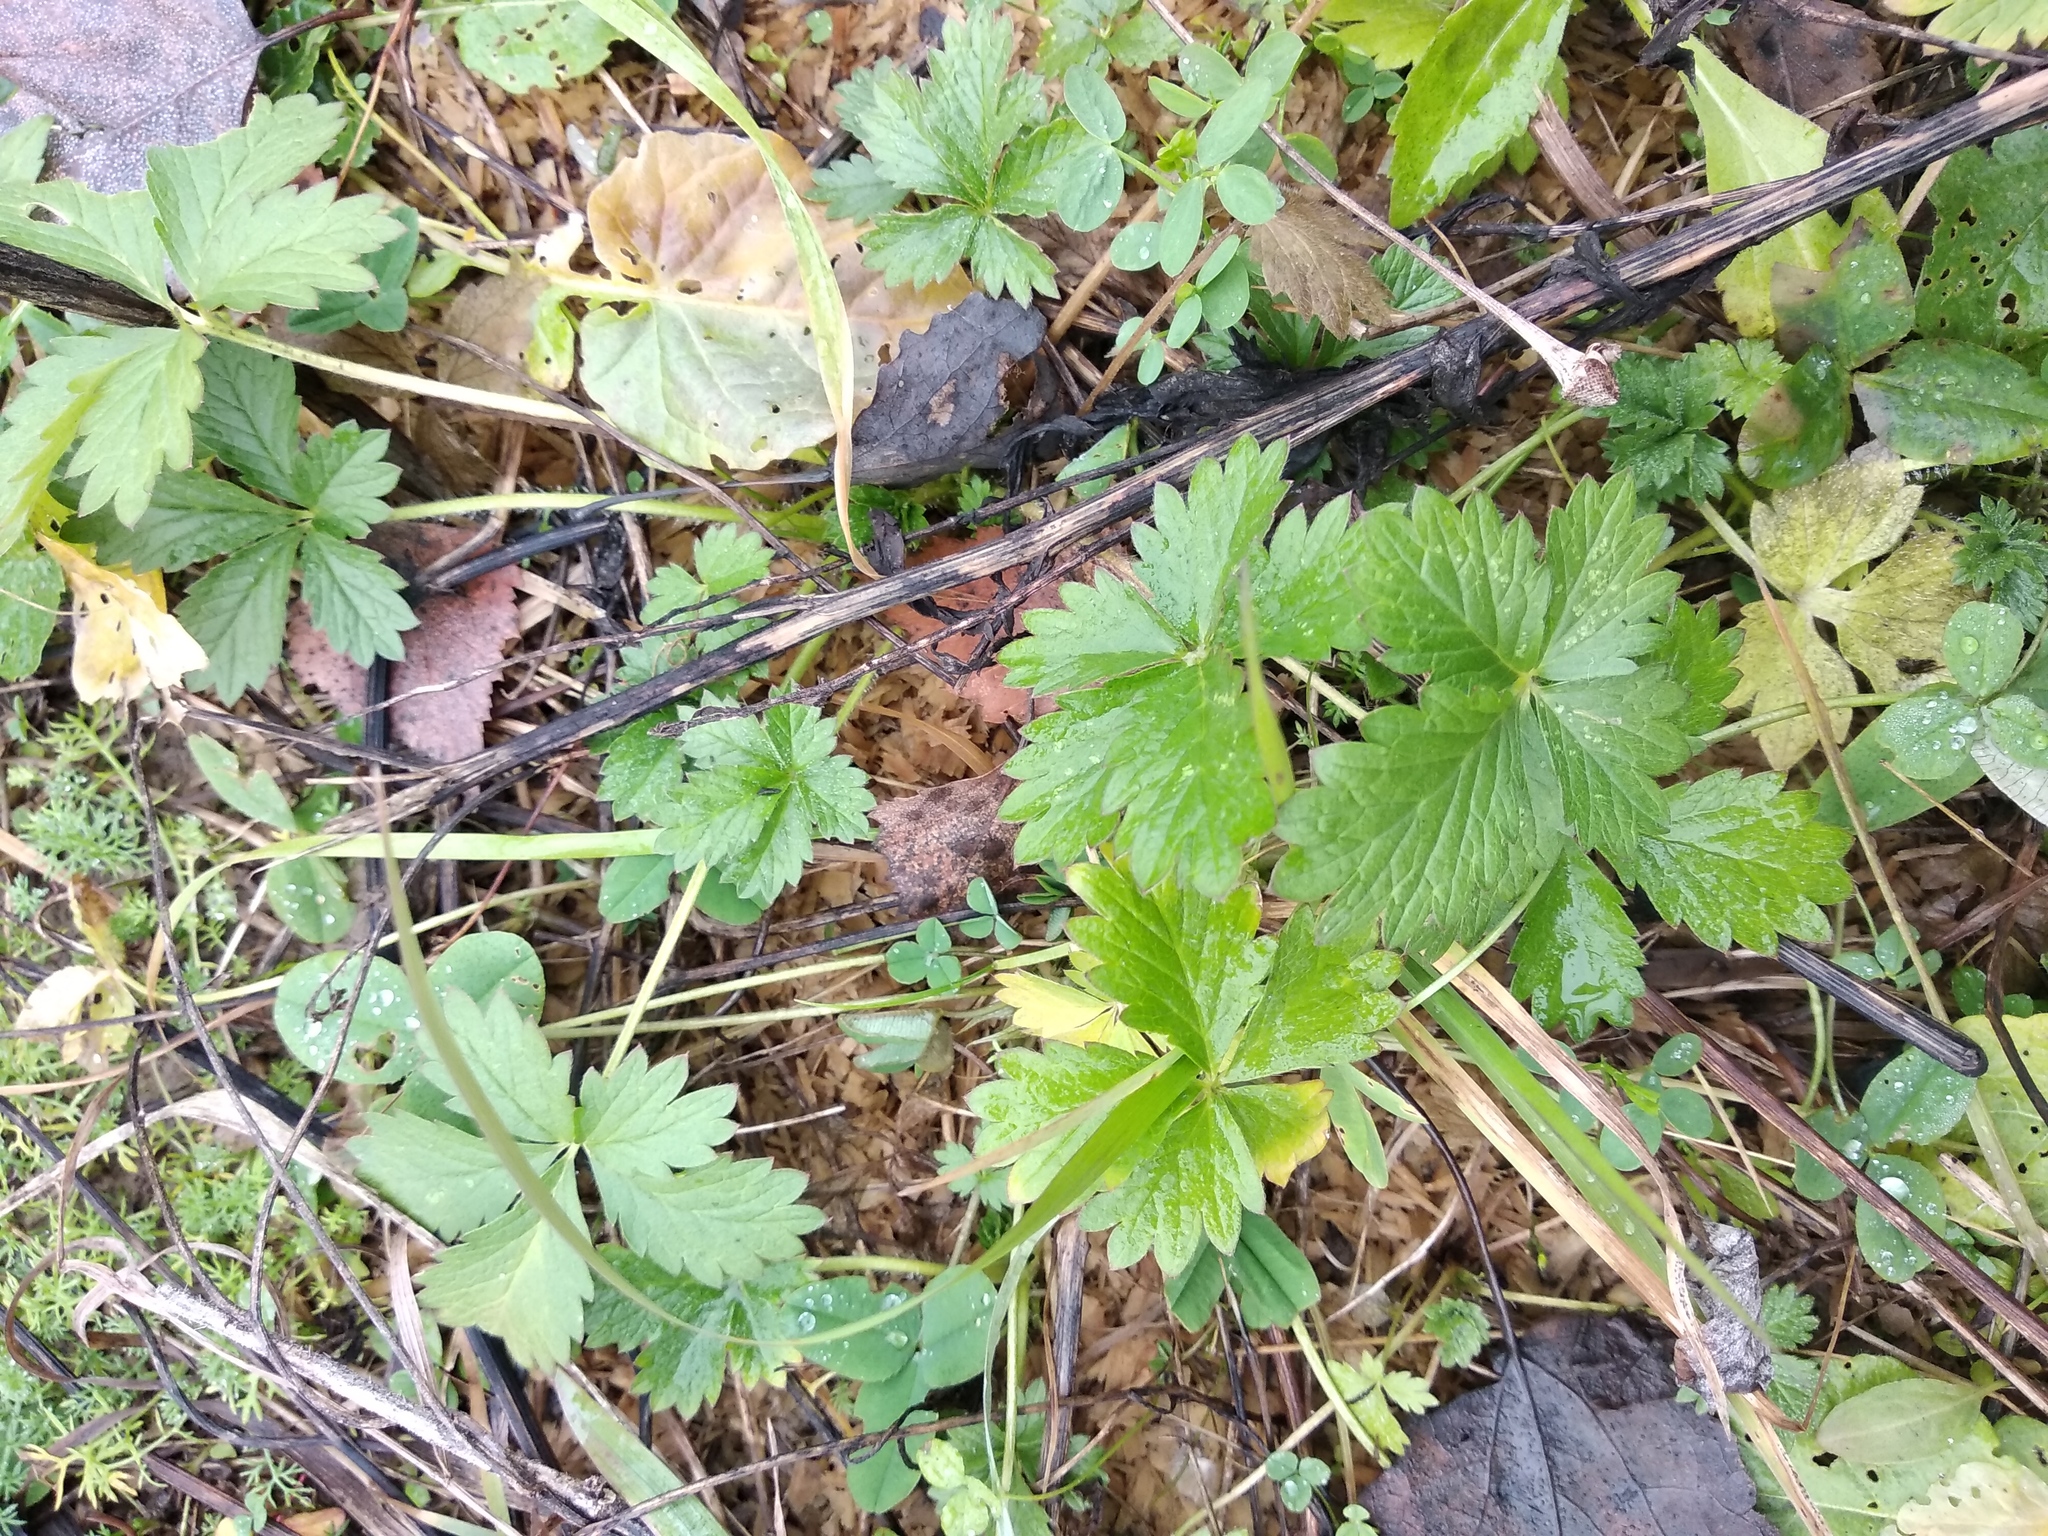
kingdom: Plantae
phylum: Tracheophyta
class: Magnoliopsida
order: Rosales
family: Rosaceae
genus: Potentilla
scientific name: Potentilla intermedia
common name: Downy cinquefoil
